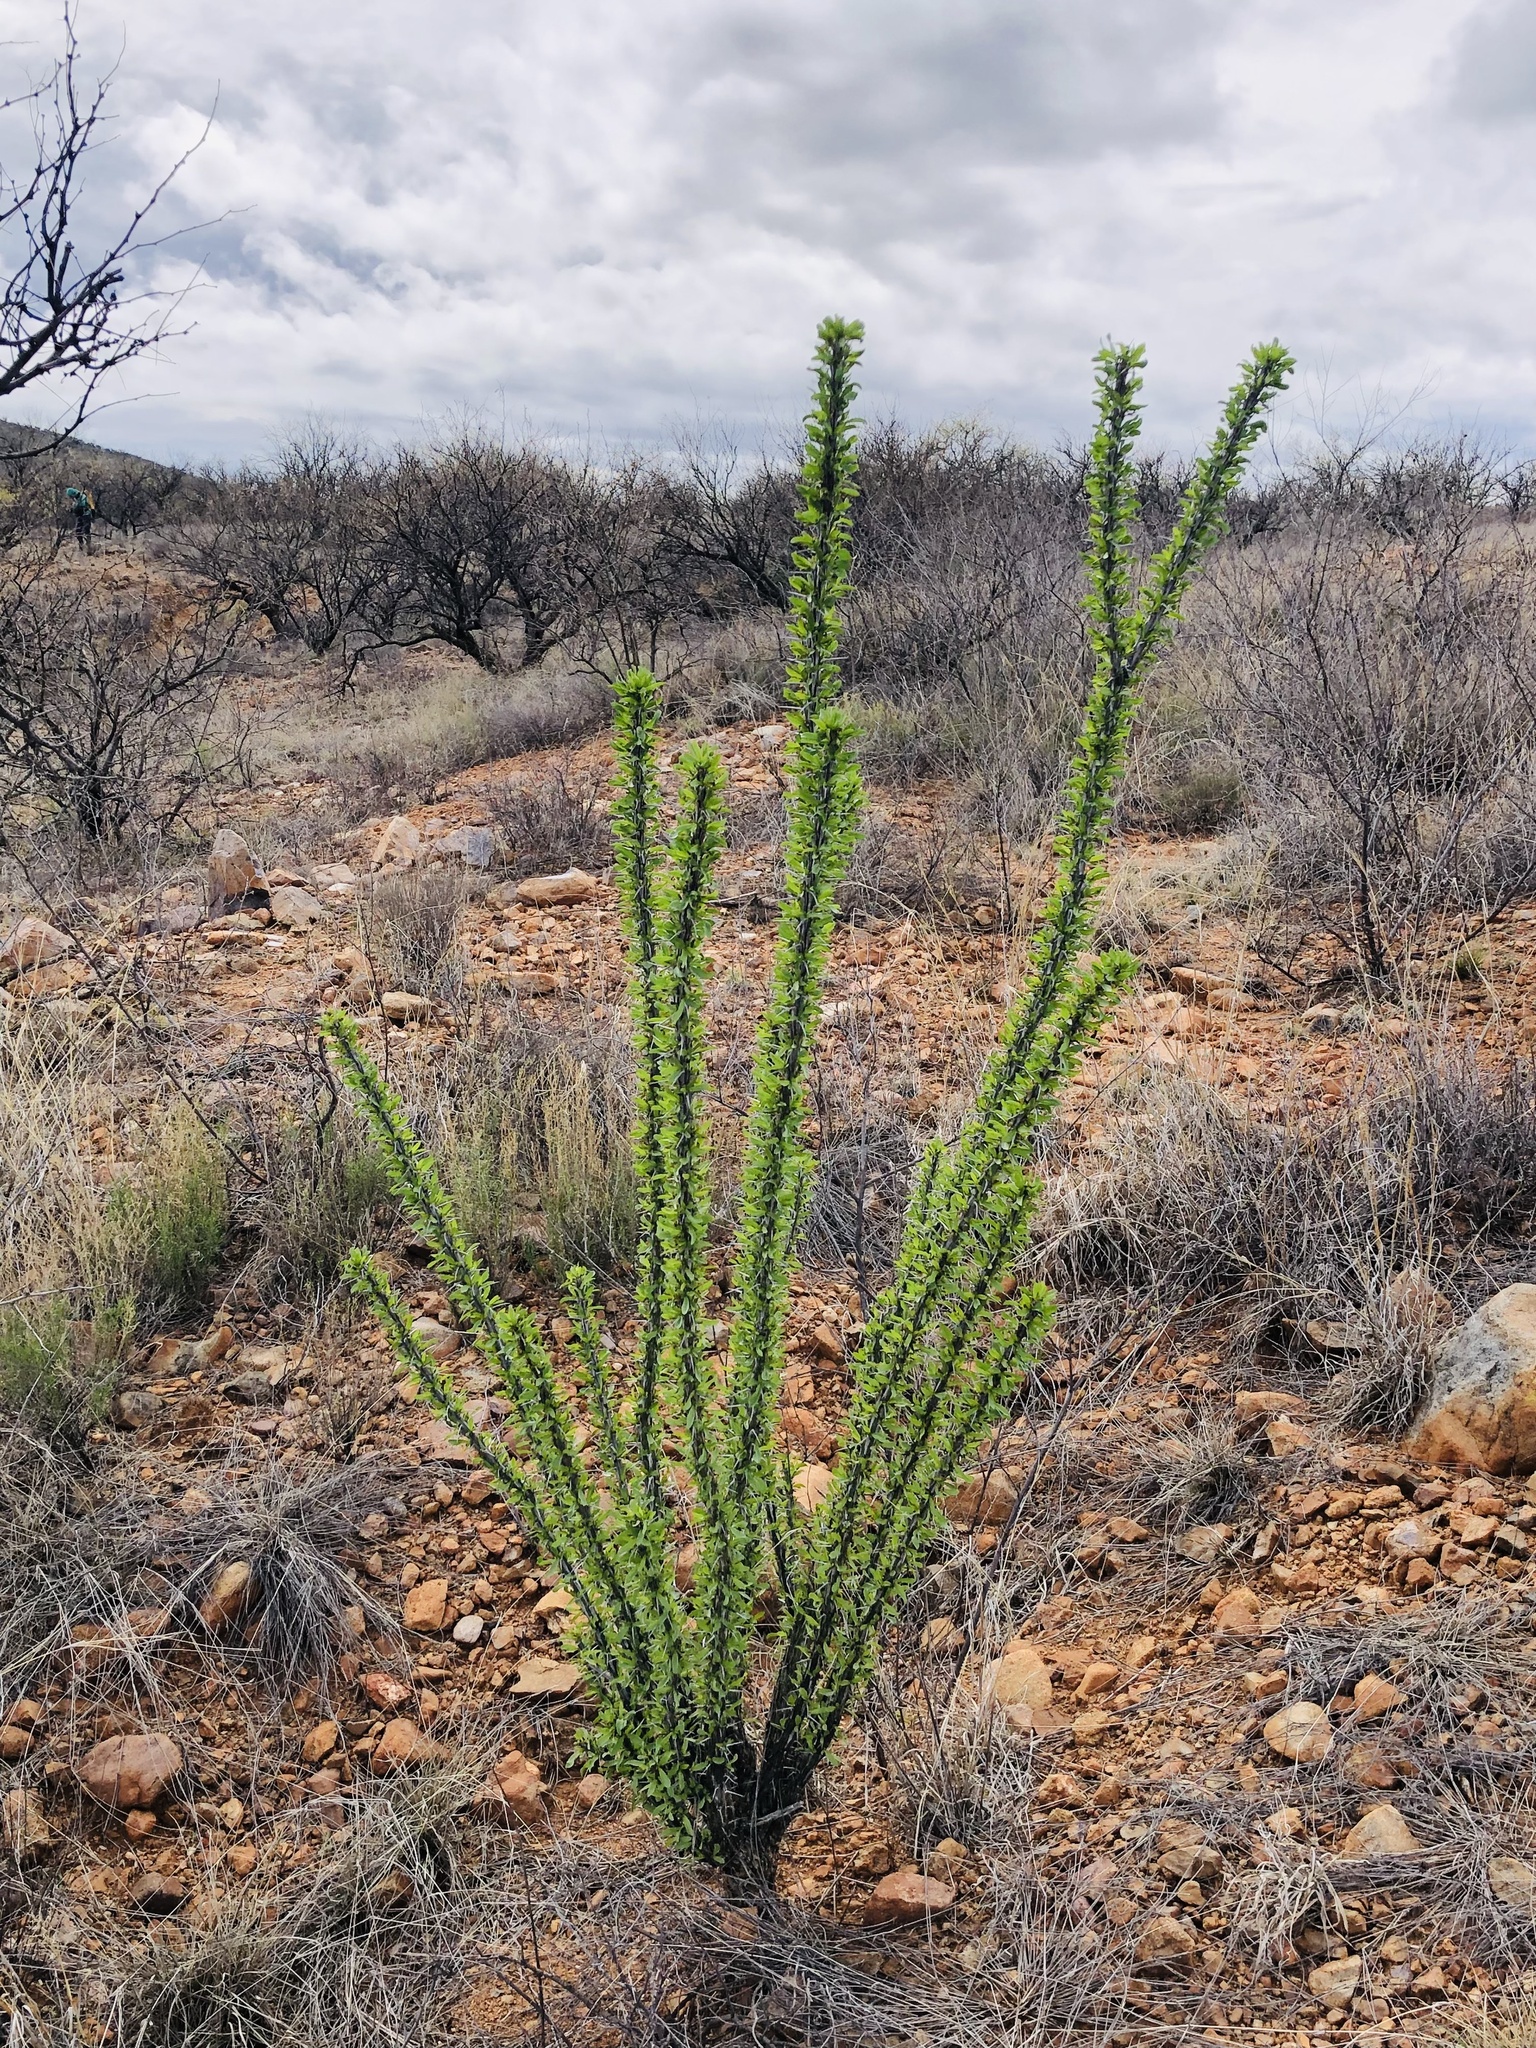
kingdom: Plantae
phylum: Tracheophyta
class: Magnoliopsida
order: Ericales
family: Fouquieriaceae
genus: Fouquieria
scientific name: Fouquieria splendens
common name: Vine-cactus
